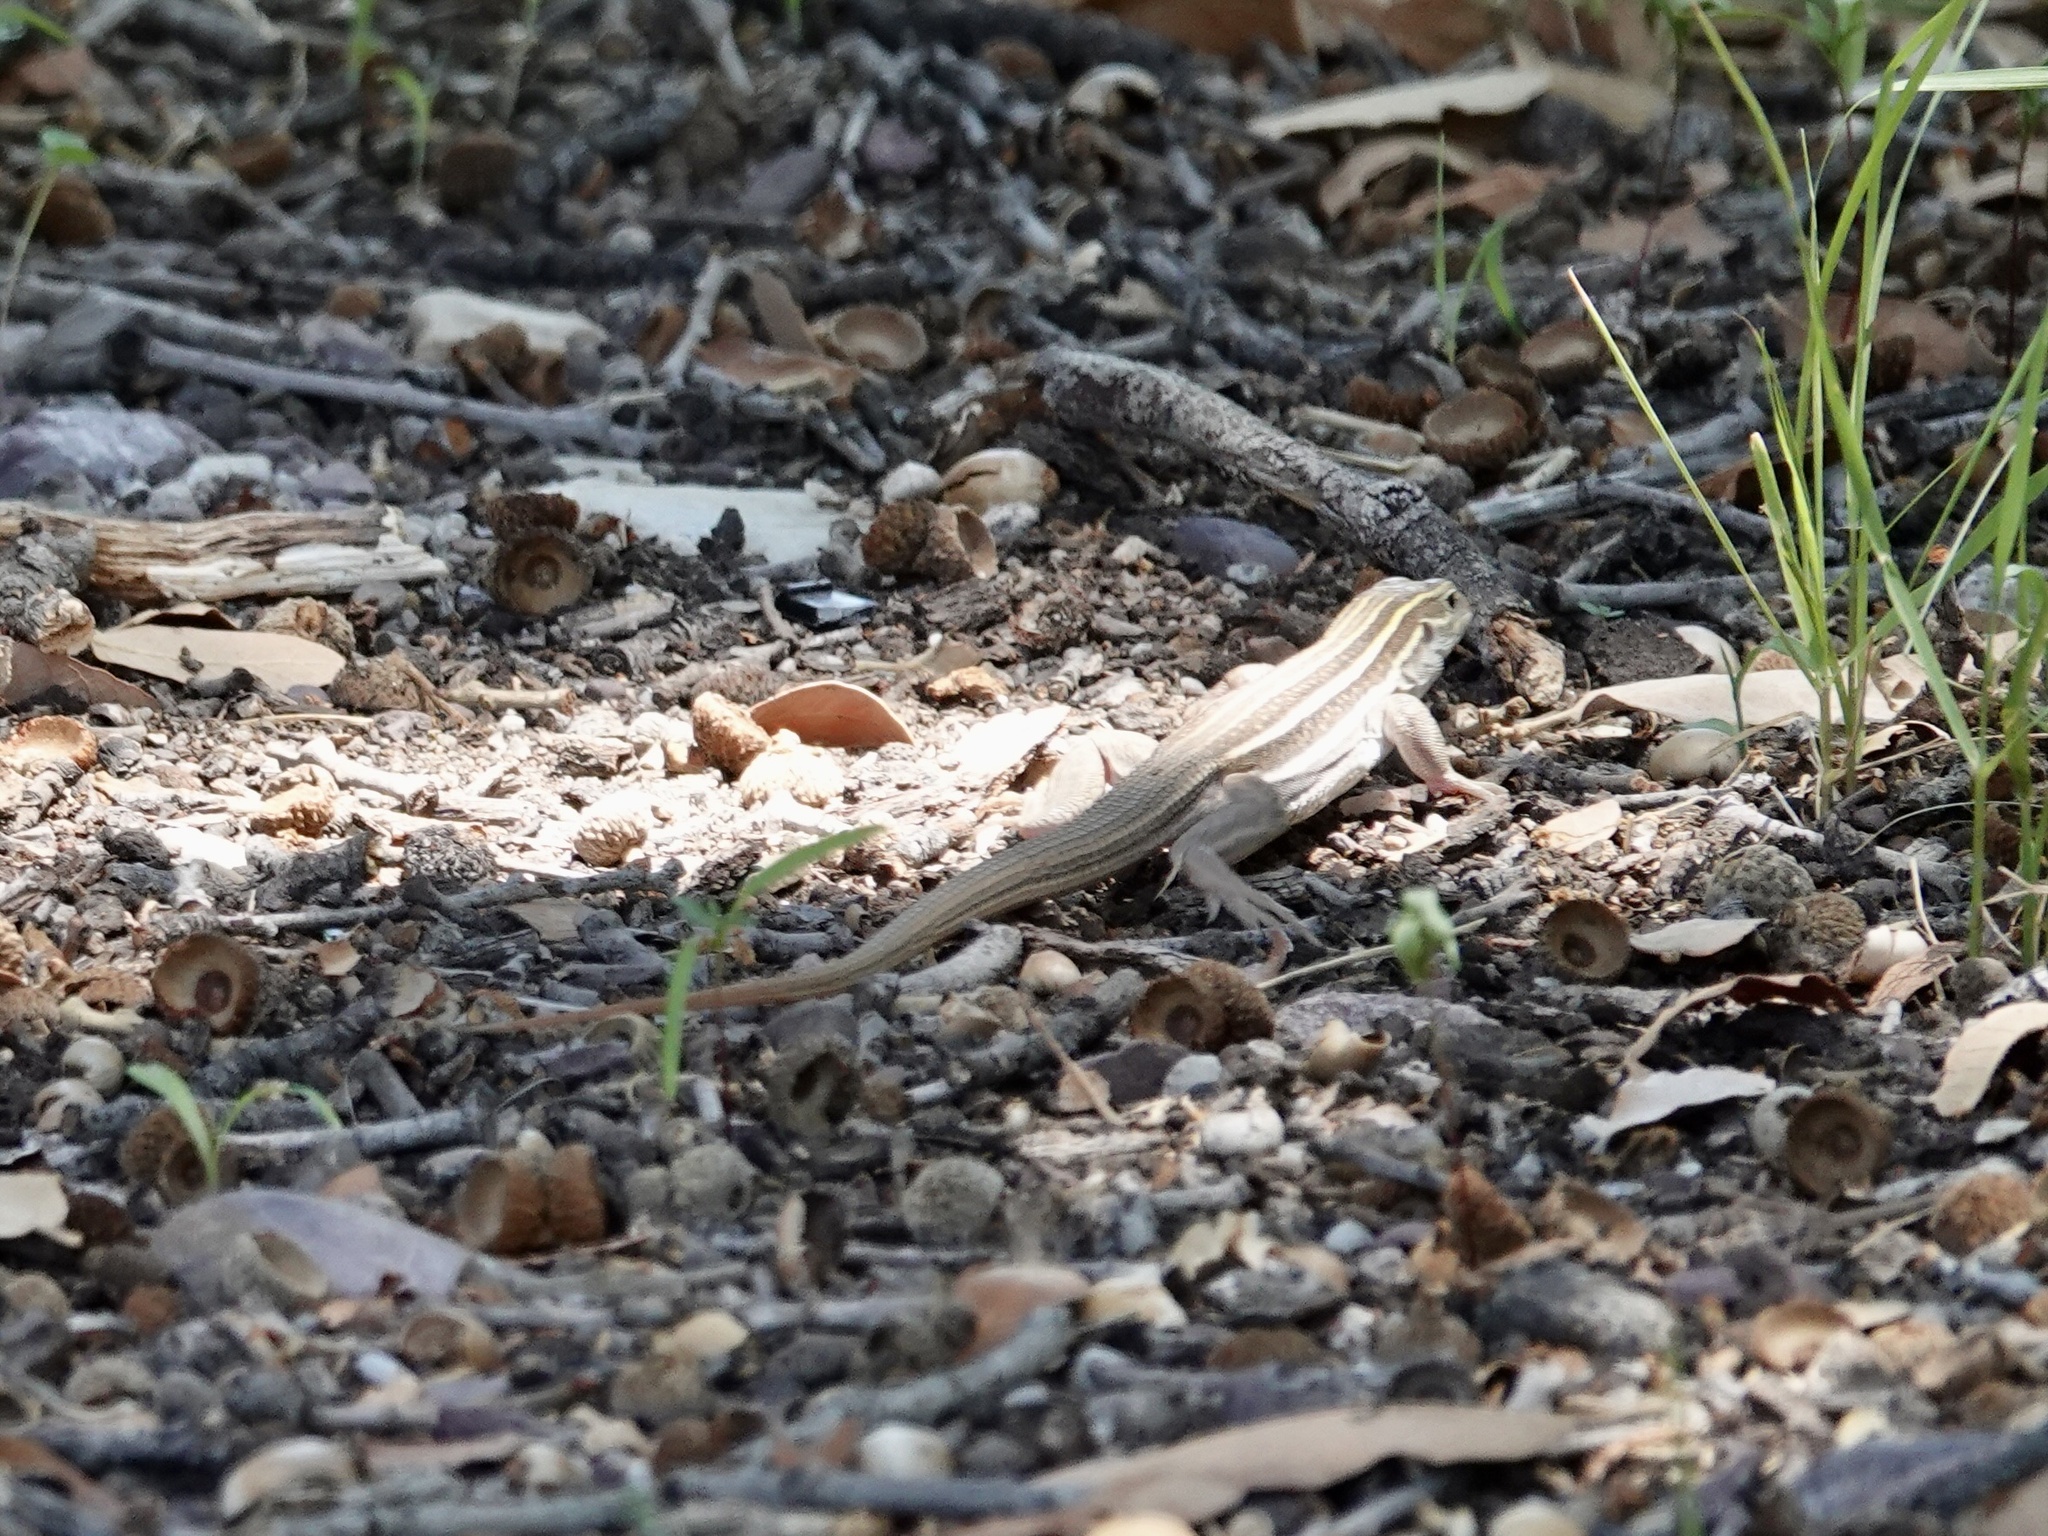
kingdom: Animalia
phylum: Chordata
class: Squamata
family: Teiidae
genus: Aspidoscelis
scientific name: Aspidoscelis sonorae
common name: Sonoran spotted whiptail
